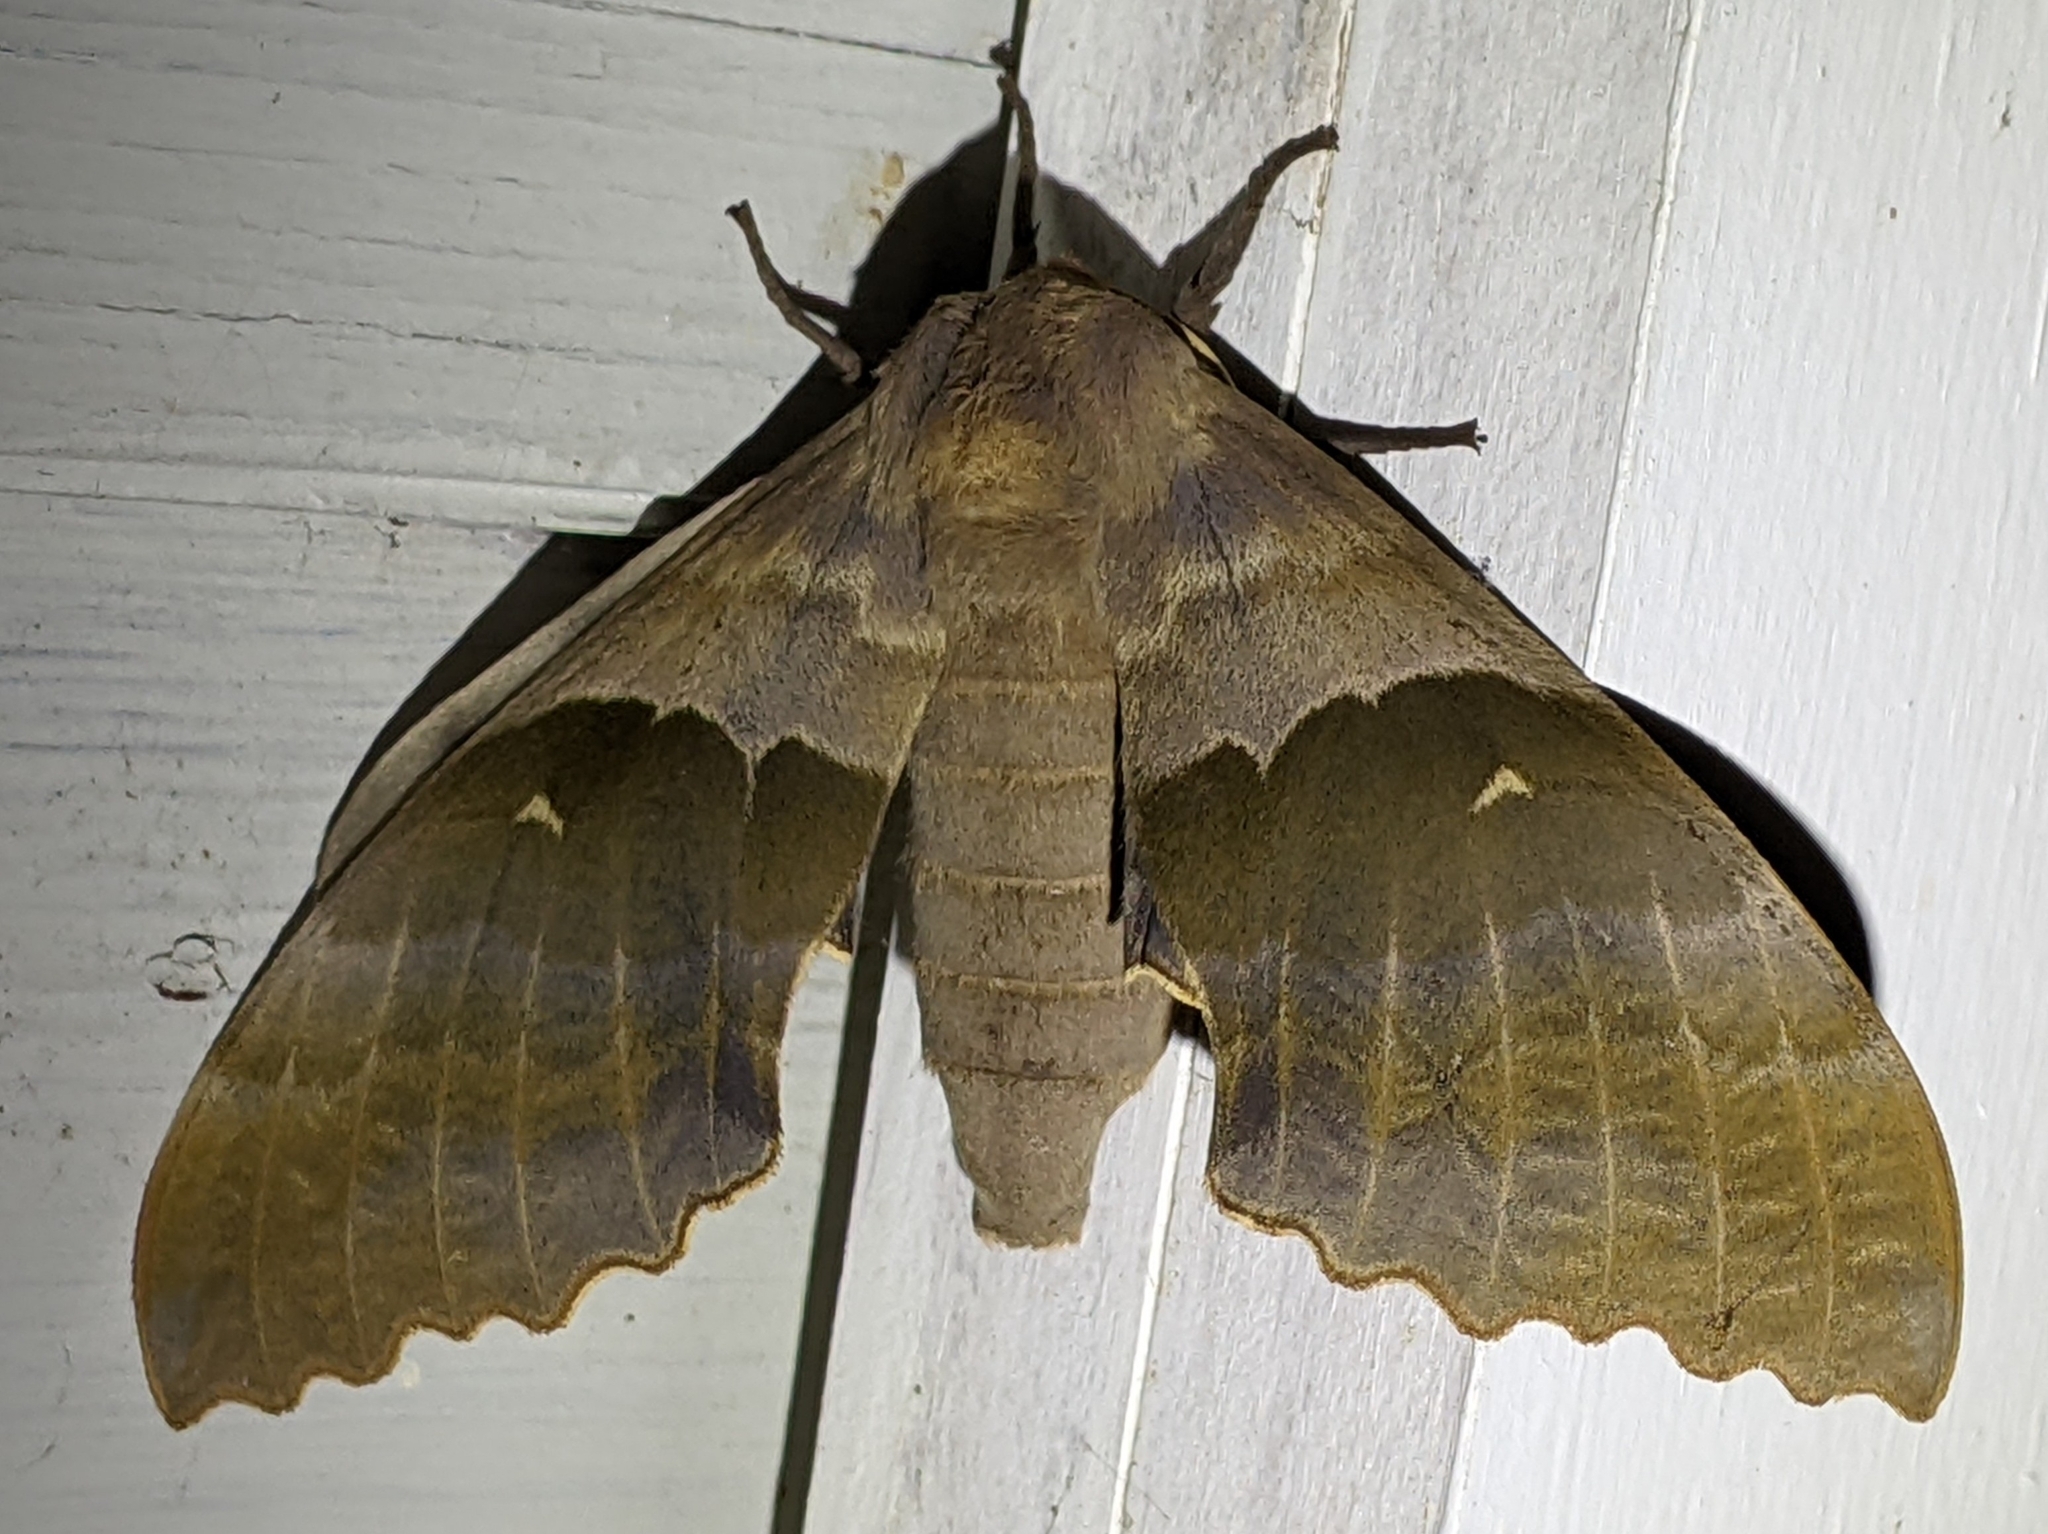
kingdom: Animalia
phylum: Arthropoda
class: Insecta
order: Lepidoptera
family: Sphingidae
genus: Pachysphinx
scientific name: Pachysphinx modesta
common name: Big poplar sphinx
